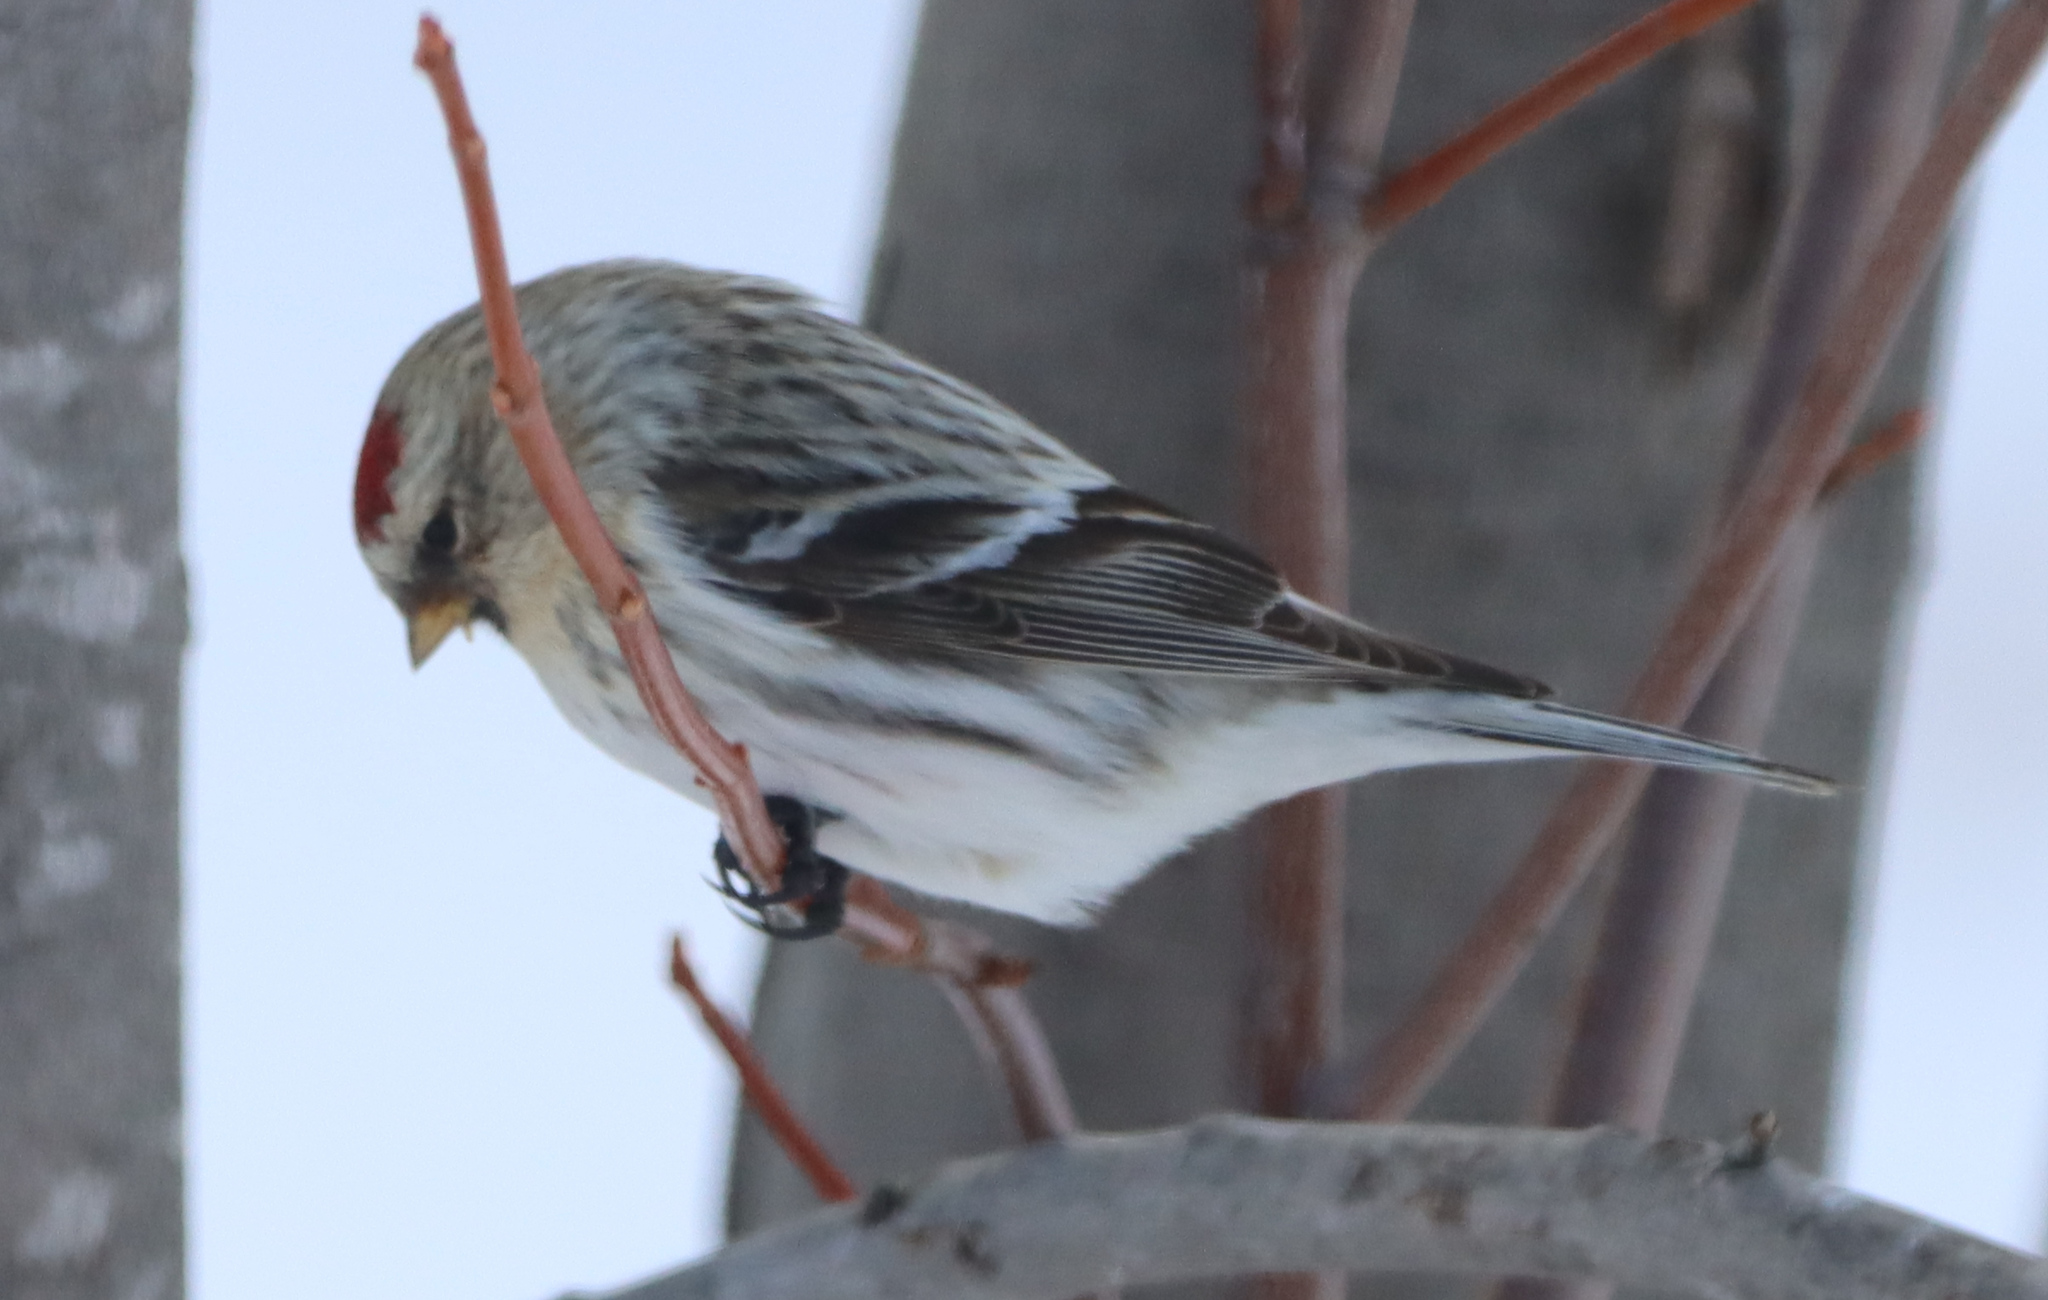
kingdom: Animalia
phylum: Chordata
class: Aves
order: Passeriformes
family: Fringillidae
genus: Acanthis
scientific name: Acanthis flammea
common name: Common redpoll
